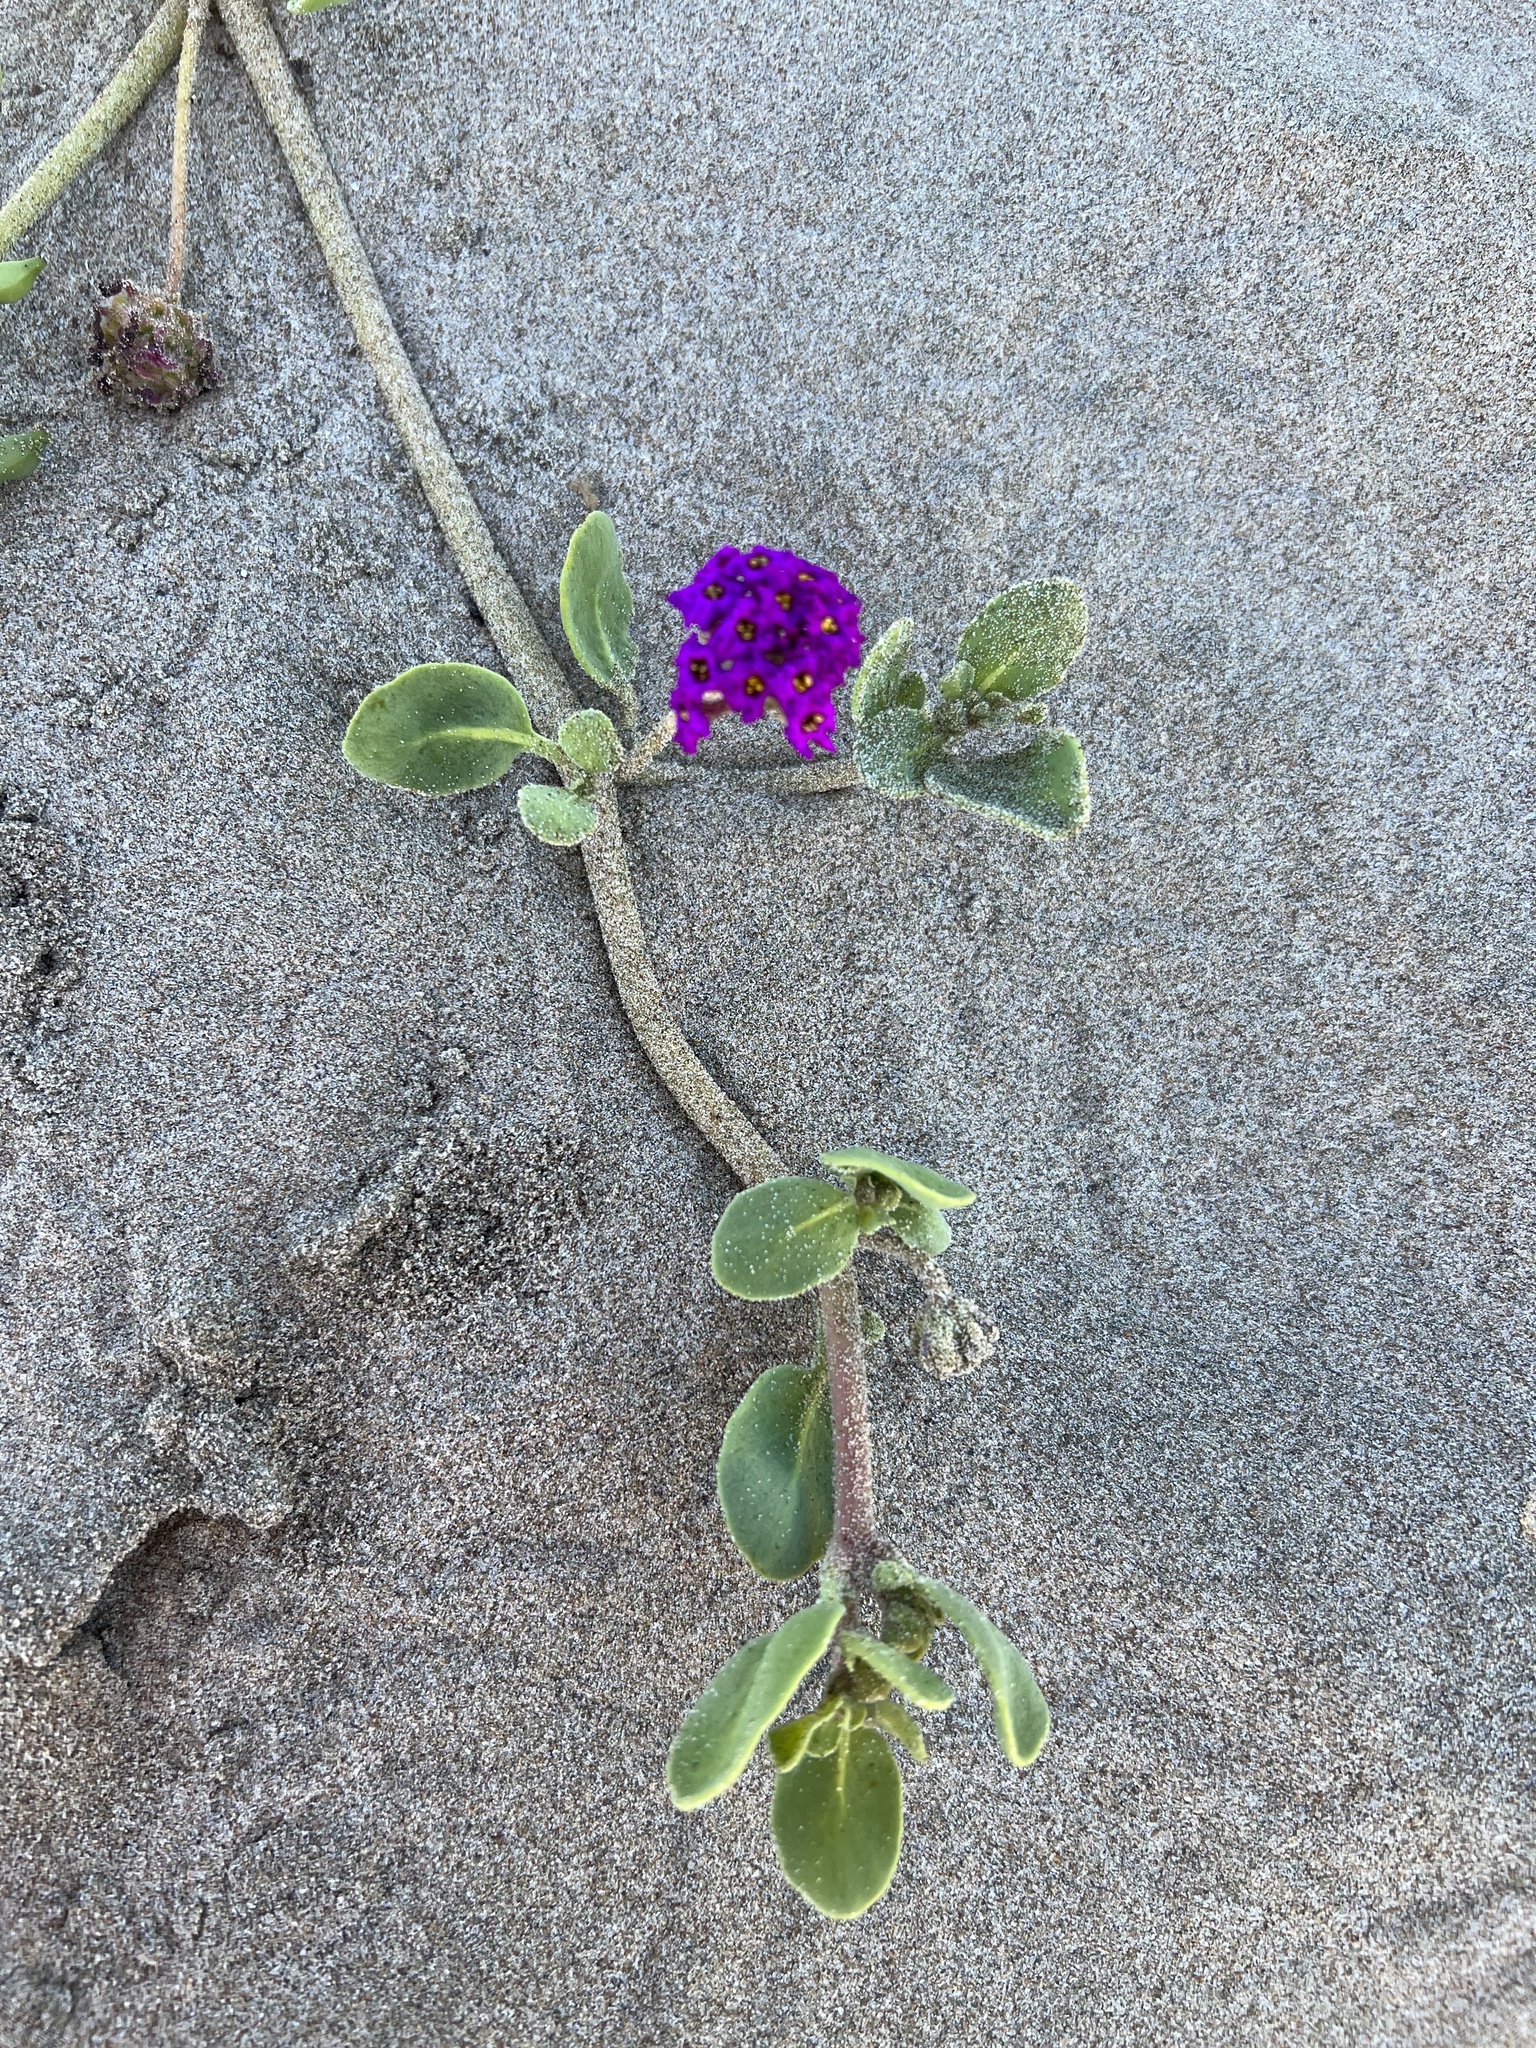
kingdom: Plantae
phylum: Tracheophyta
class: Magnoliopsida
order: Caryophyllales
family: Nyctaginaceae
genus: Abronia
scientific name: Abronia maritima
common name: Red sand-verbena
